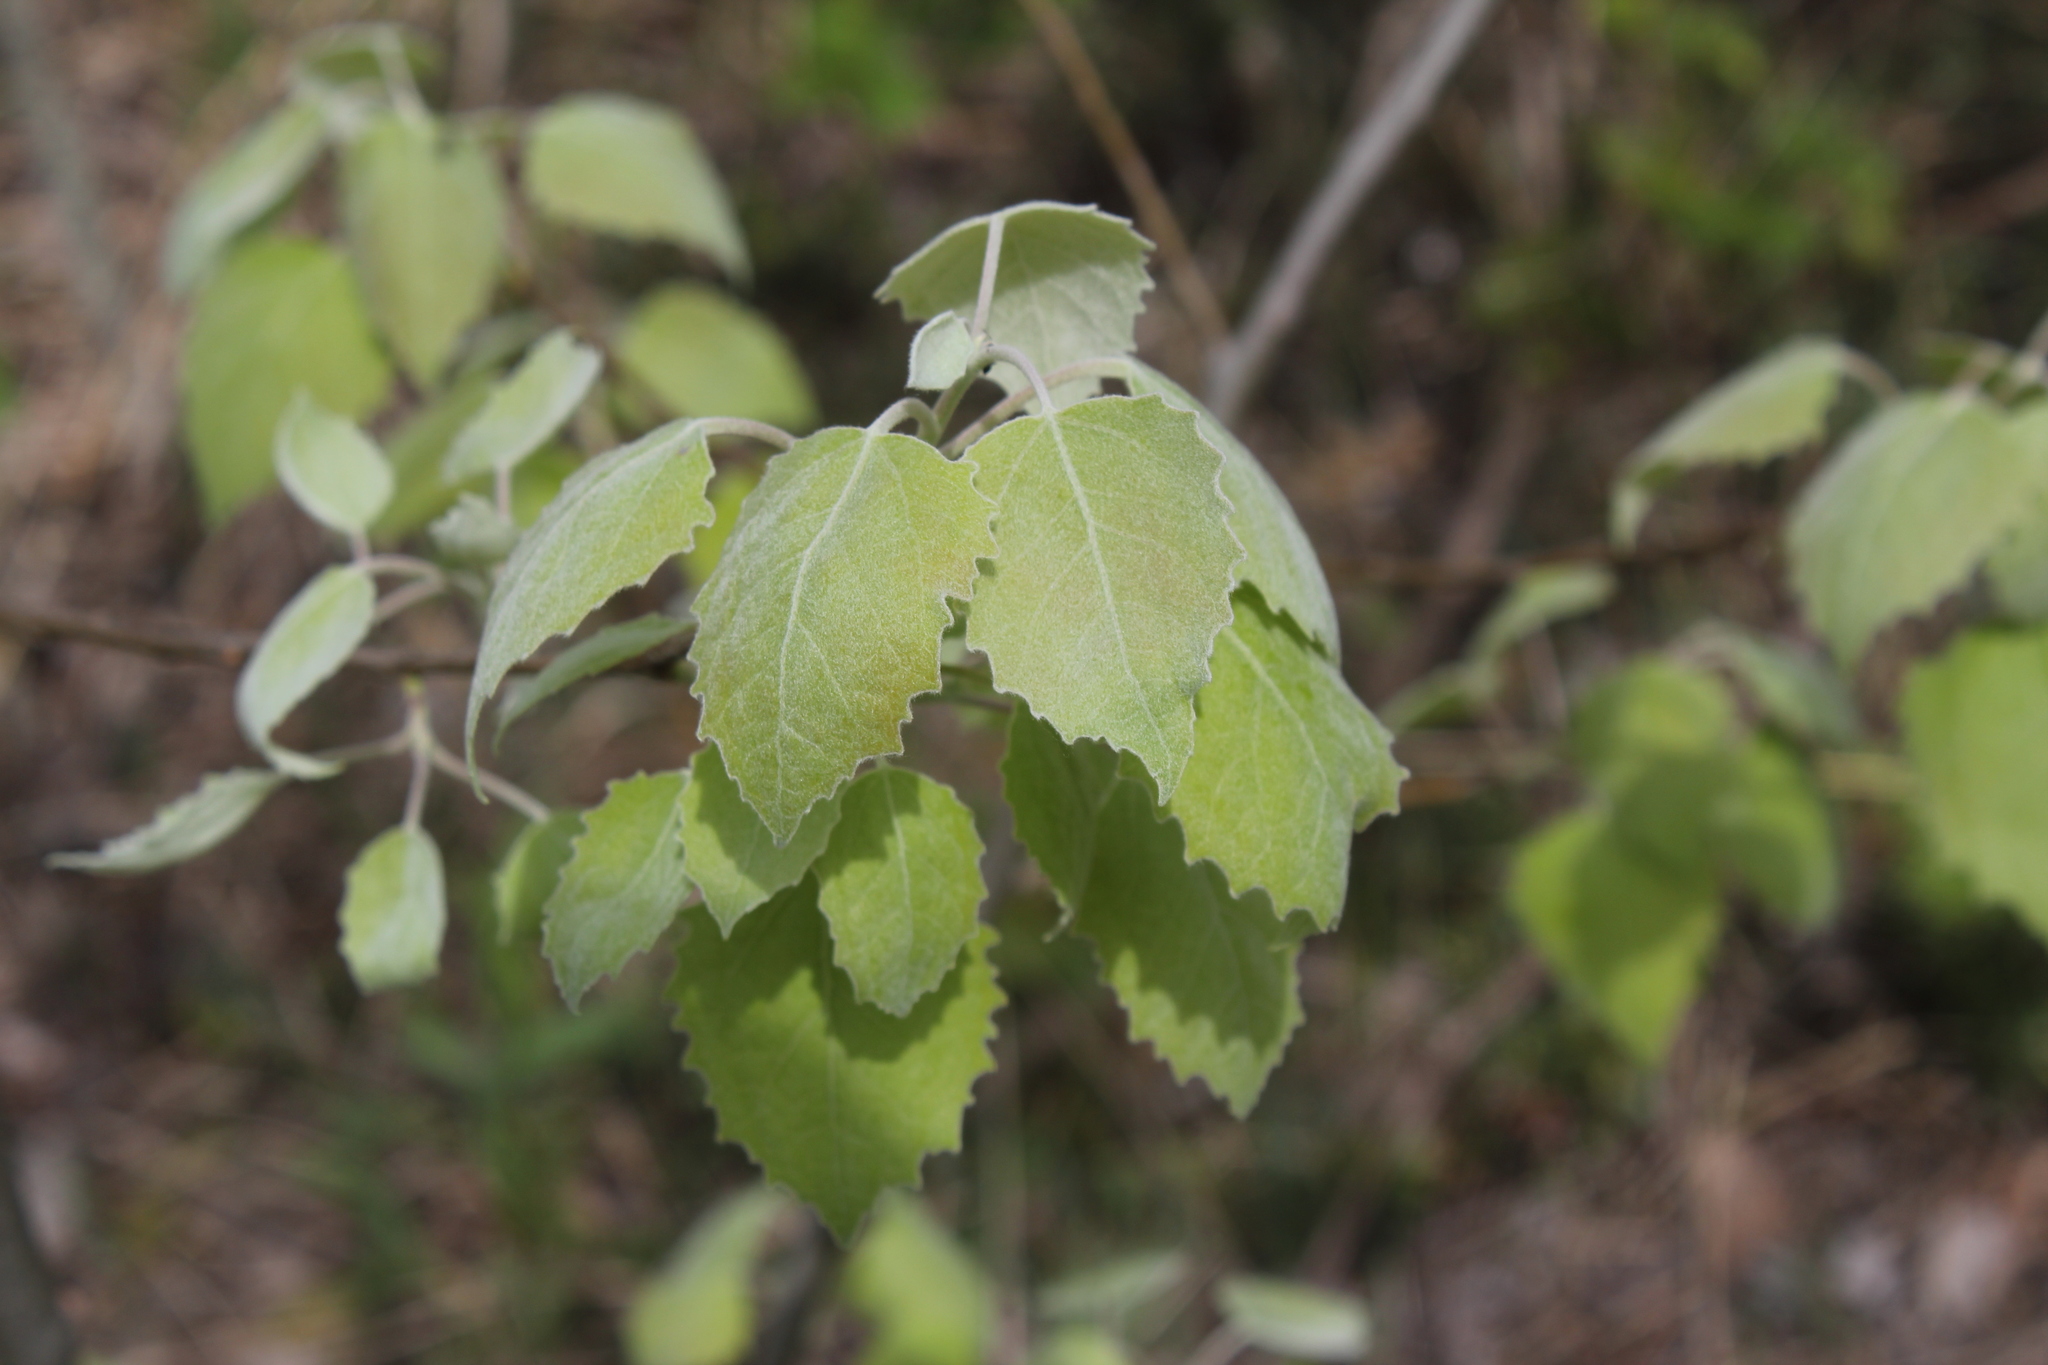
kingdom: Plantae
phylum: Tracheophyta
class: Magnoliopsida
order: Malpighiales
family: Salicaceae
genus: Populus
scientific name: Populus grandidentata
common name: Bigtooth aspen
